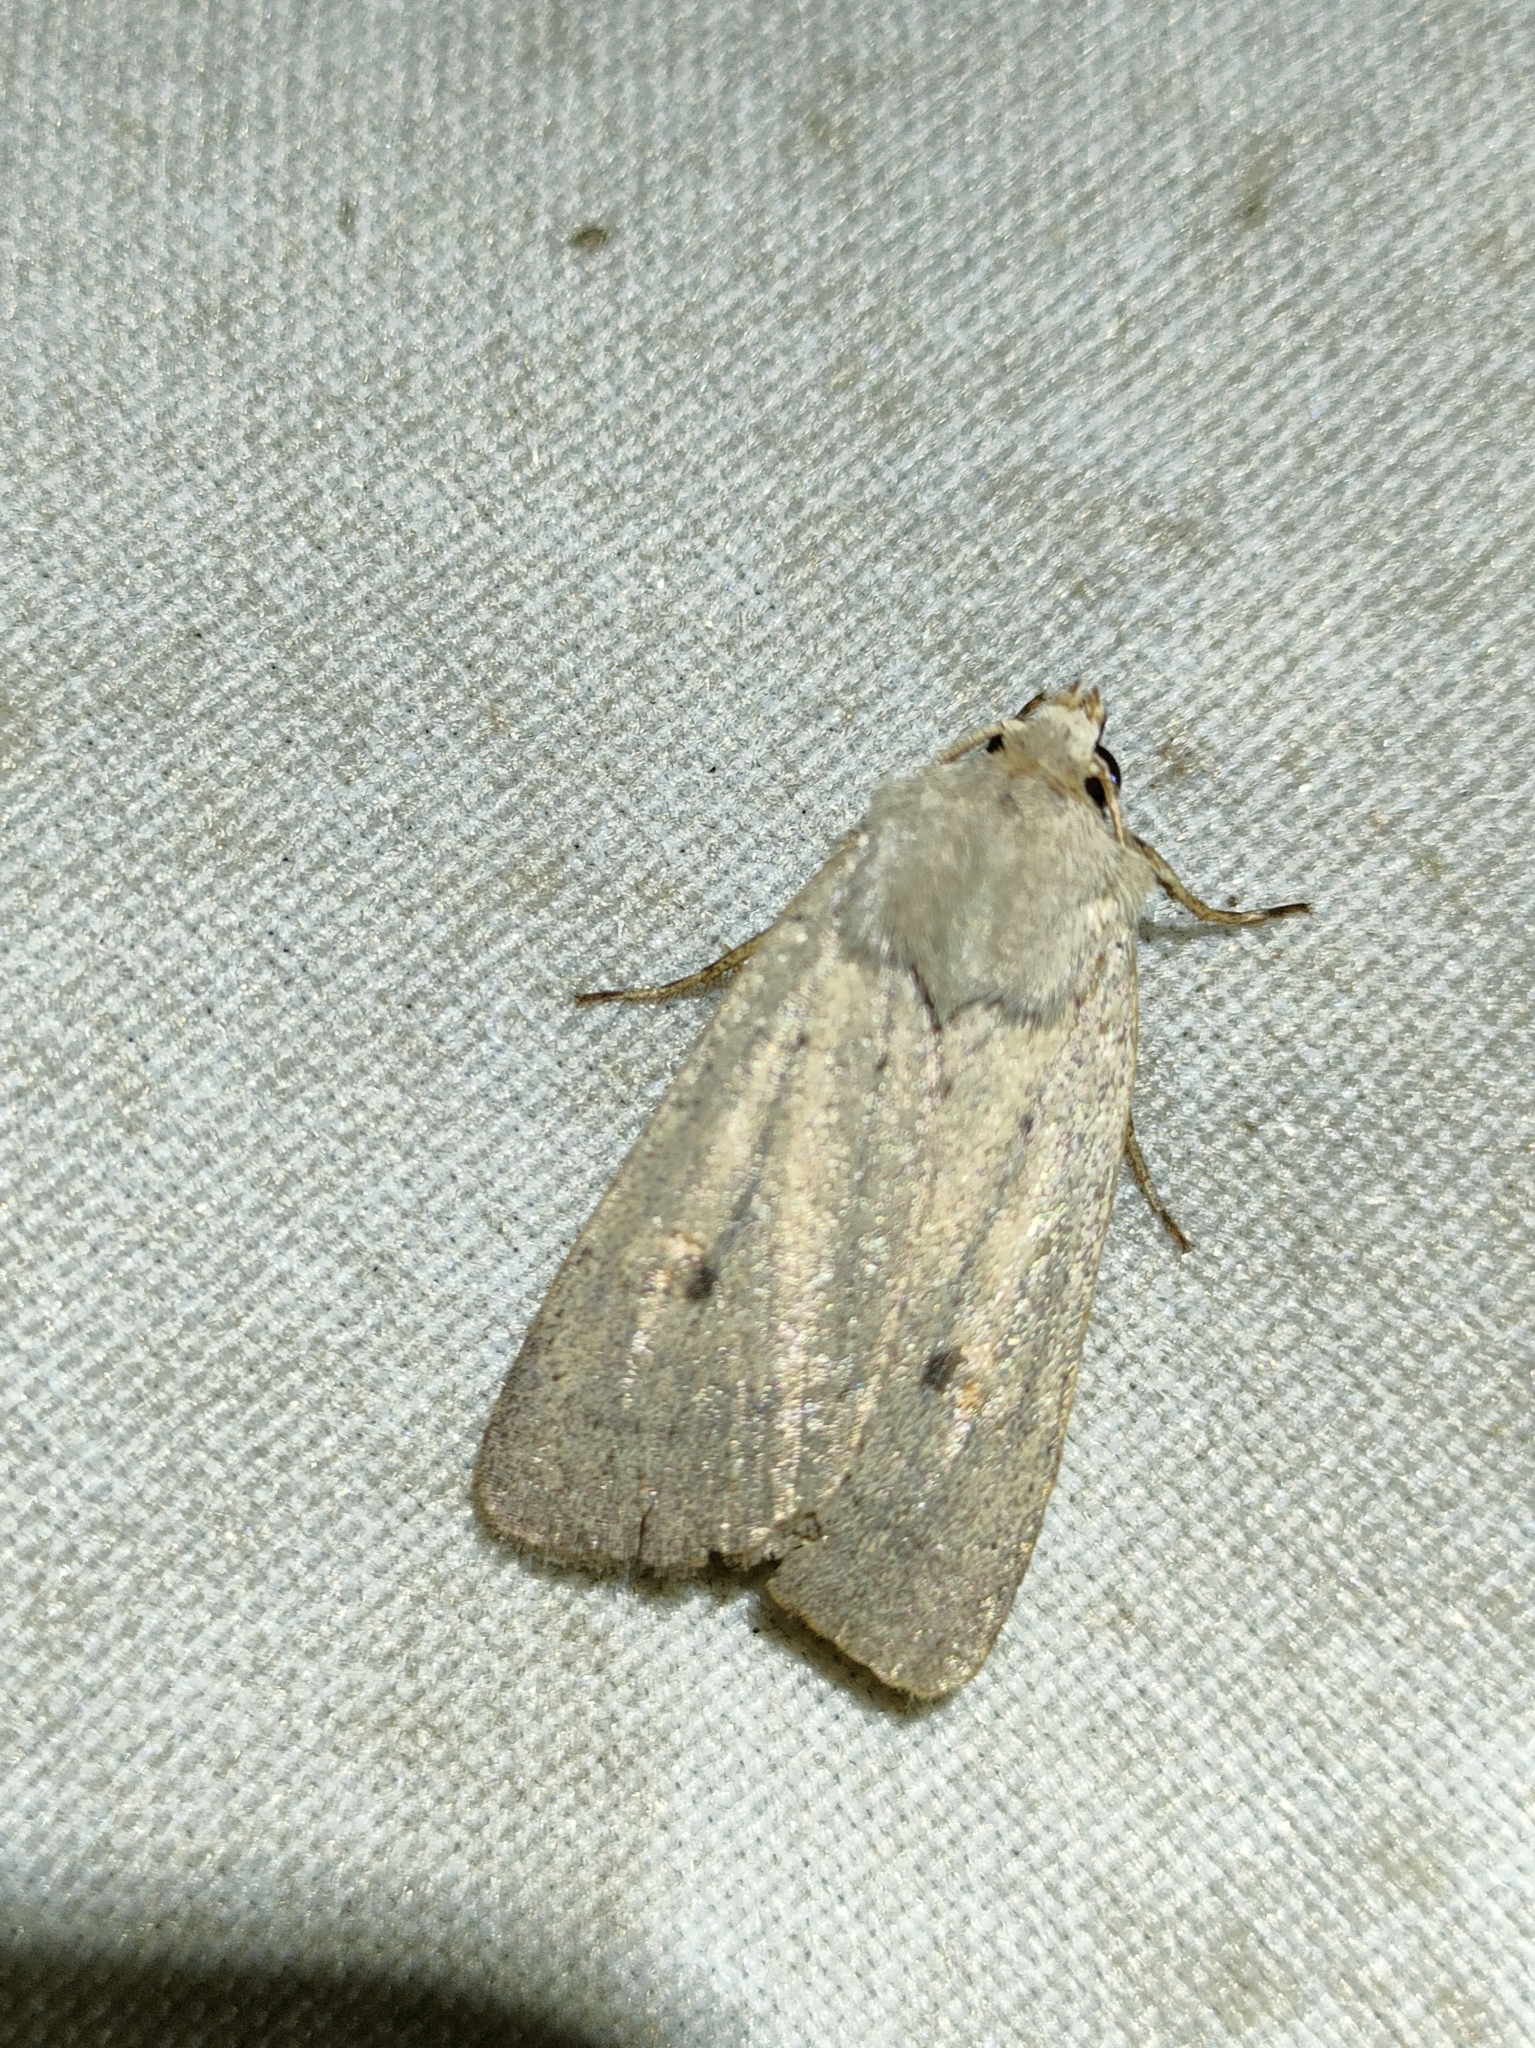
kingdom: Animalia
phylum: Arthropoda
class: Insecta
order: Lepidoptera
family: Noctuidae
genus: Xestia
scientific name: Xestia castanea
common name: Neglected rustic
